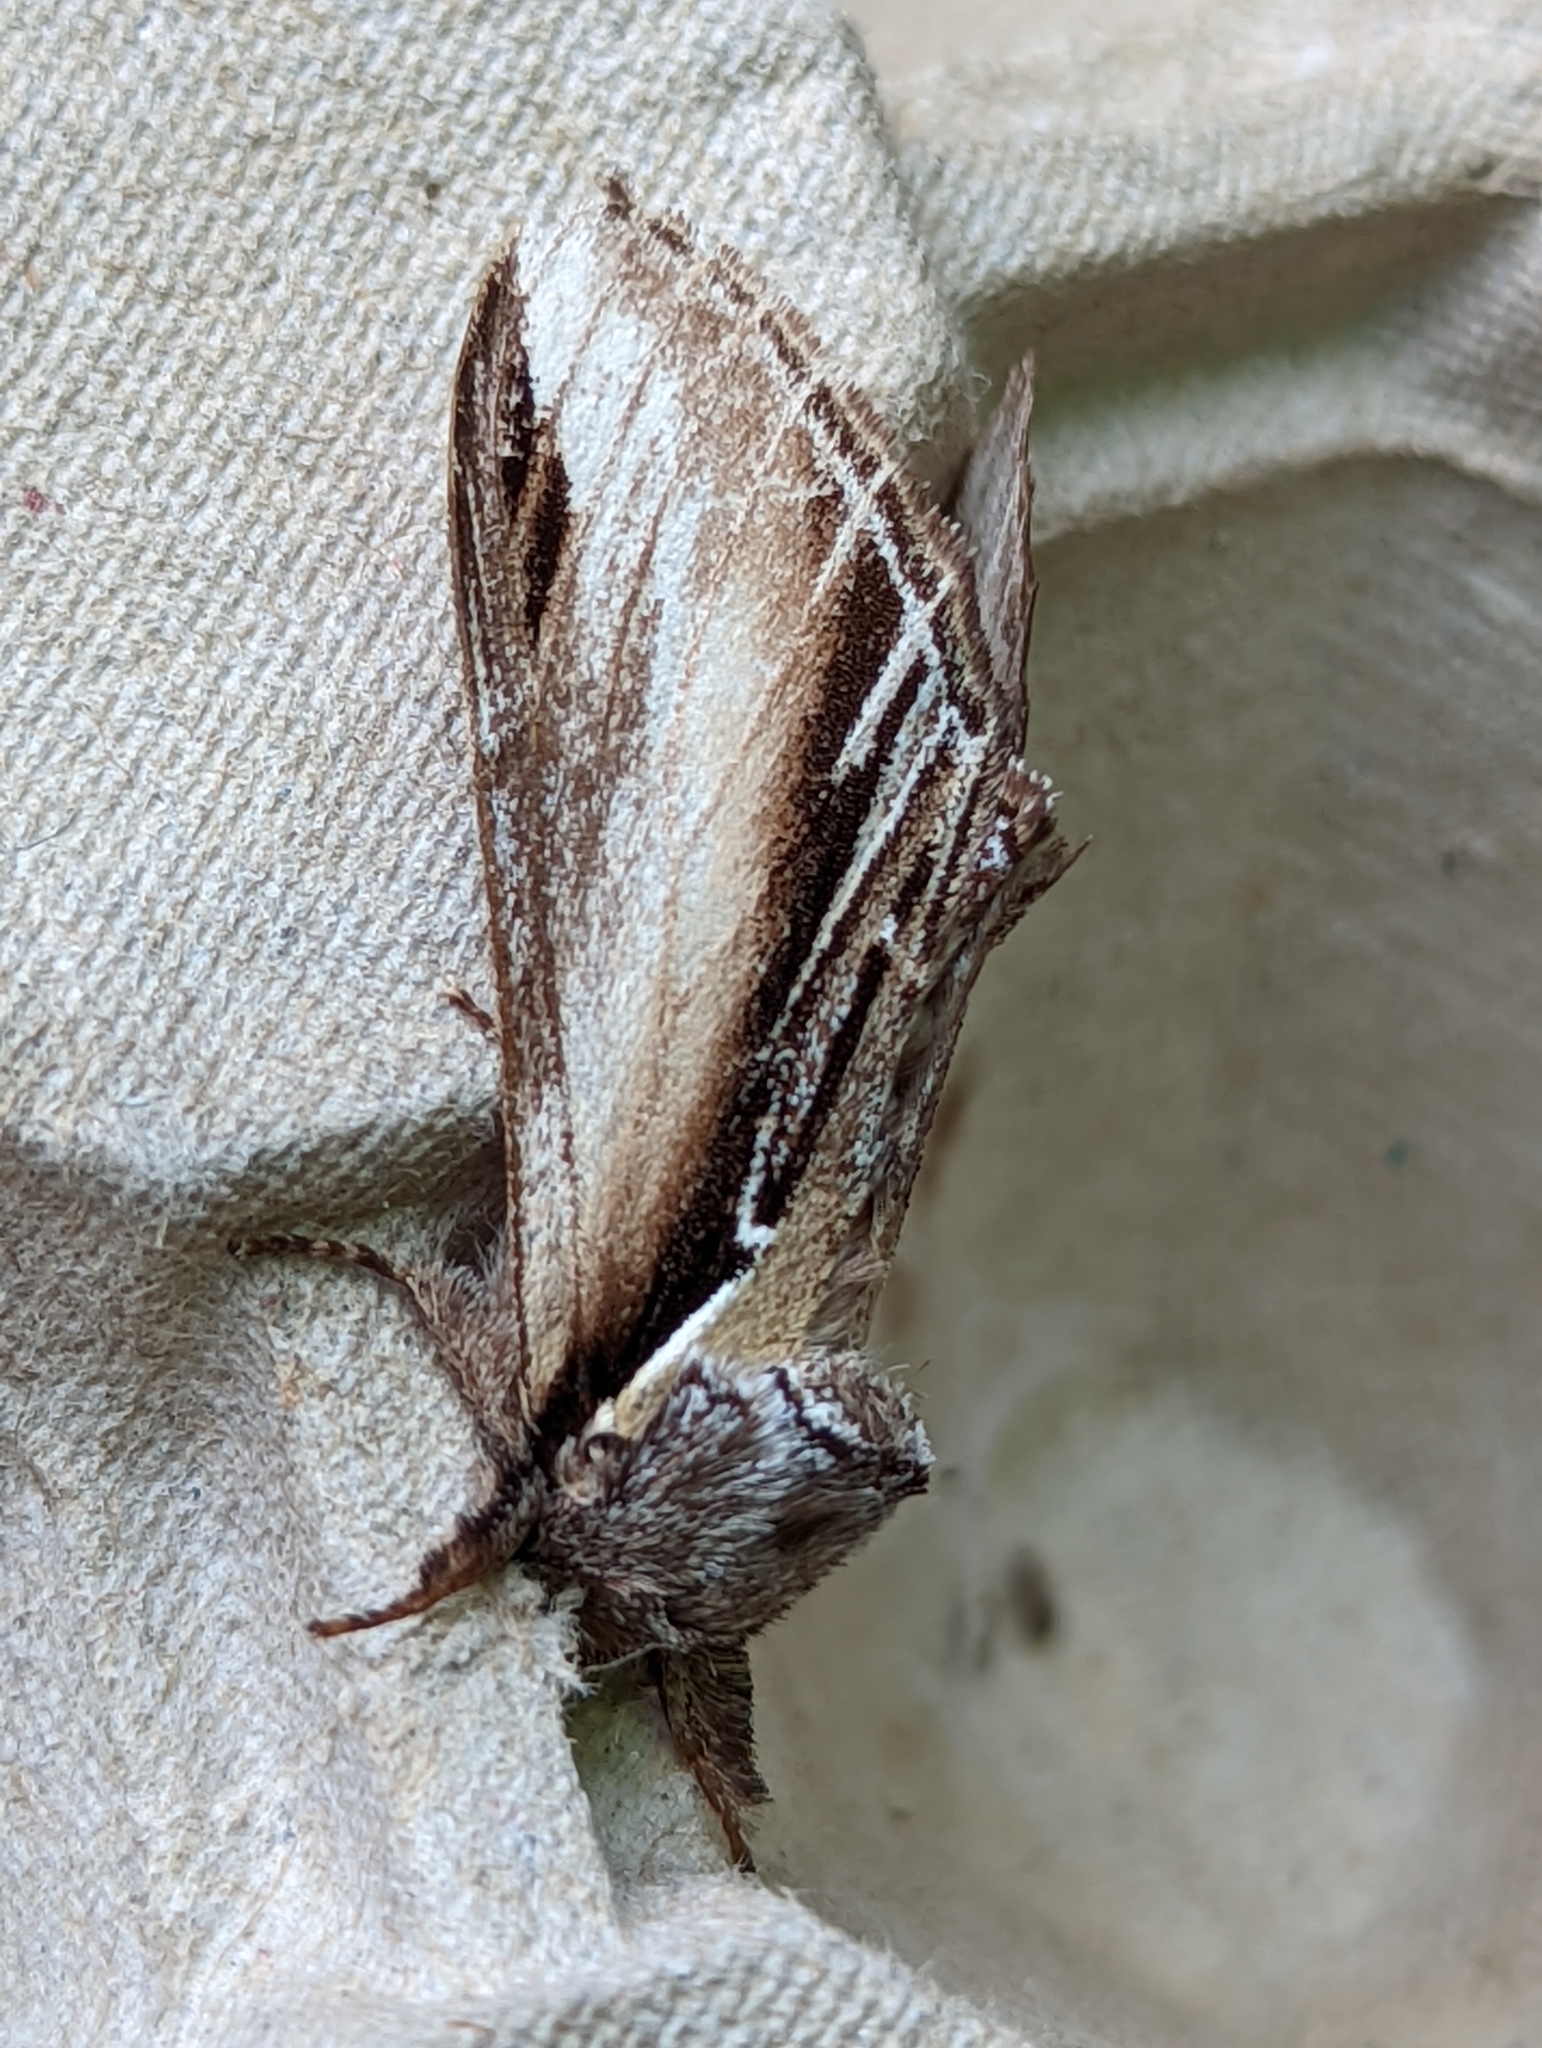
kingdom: Animalia
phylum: Arthropoda
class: Insecta
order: Lepidoptera
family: Notodontidae
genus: Pheosia
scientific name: Pheosia tremula
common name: Swallow prominent
